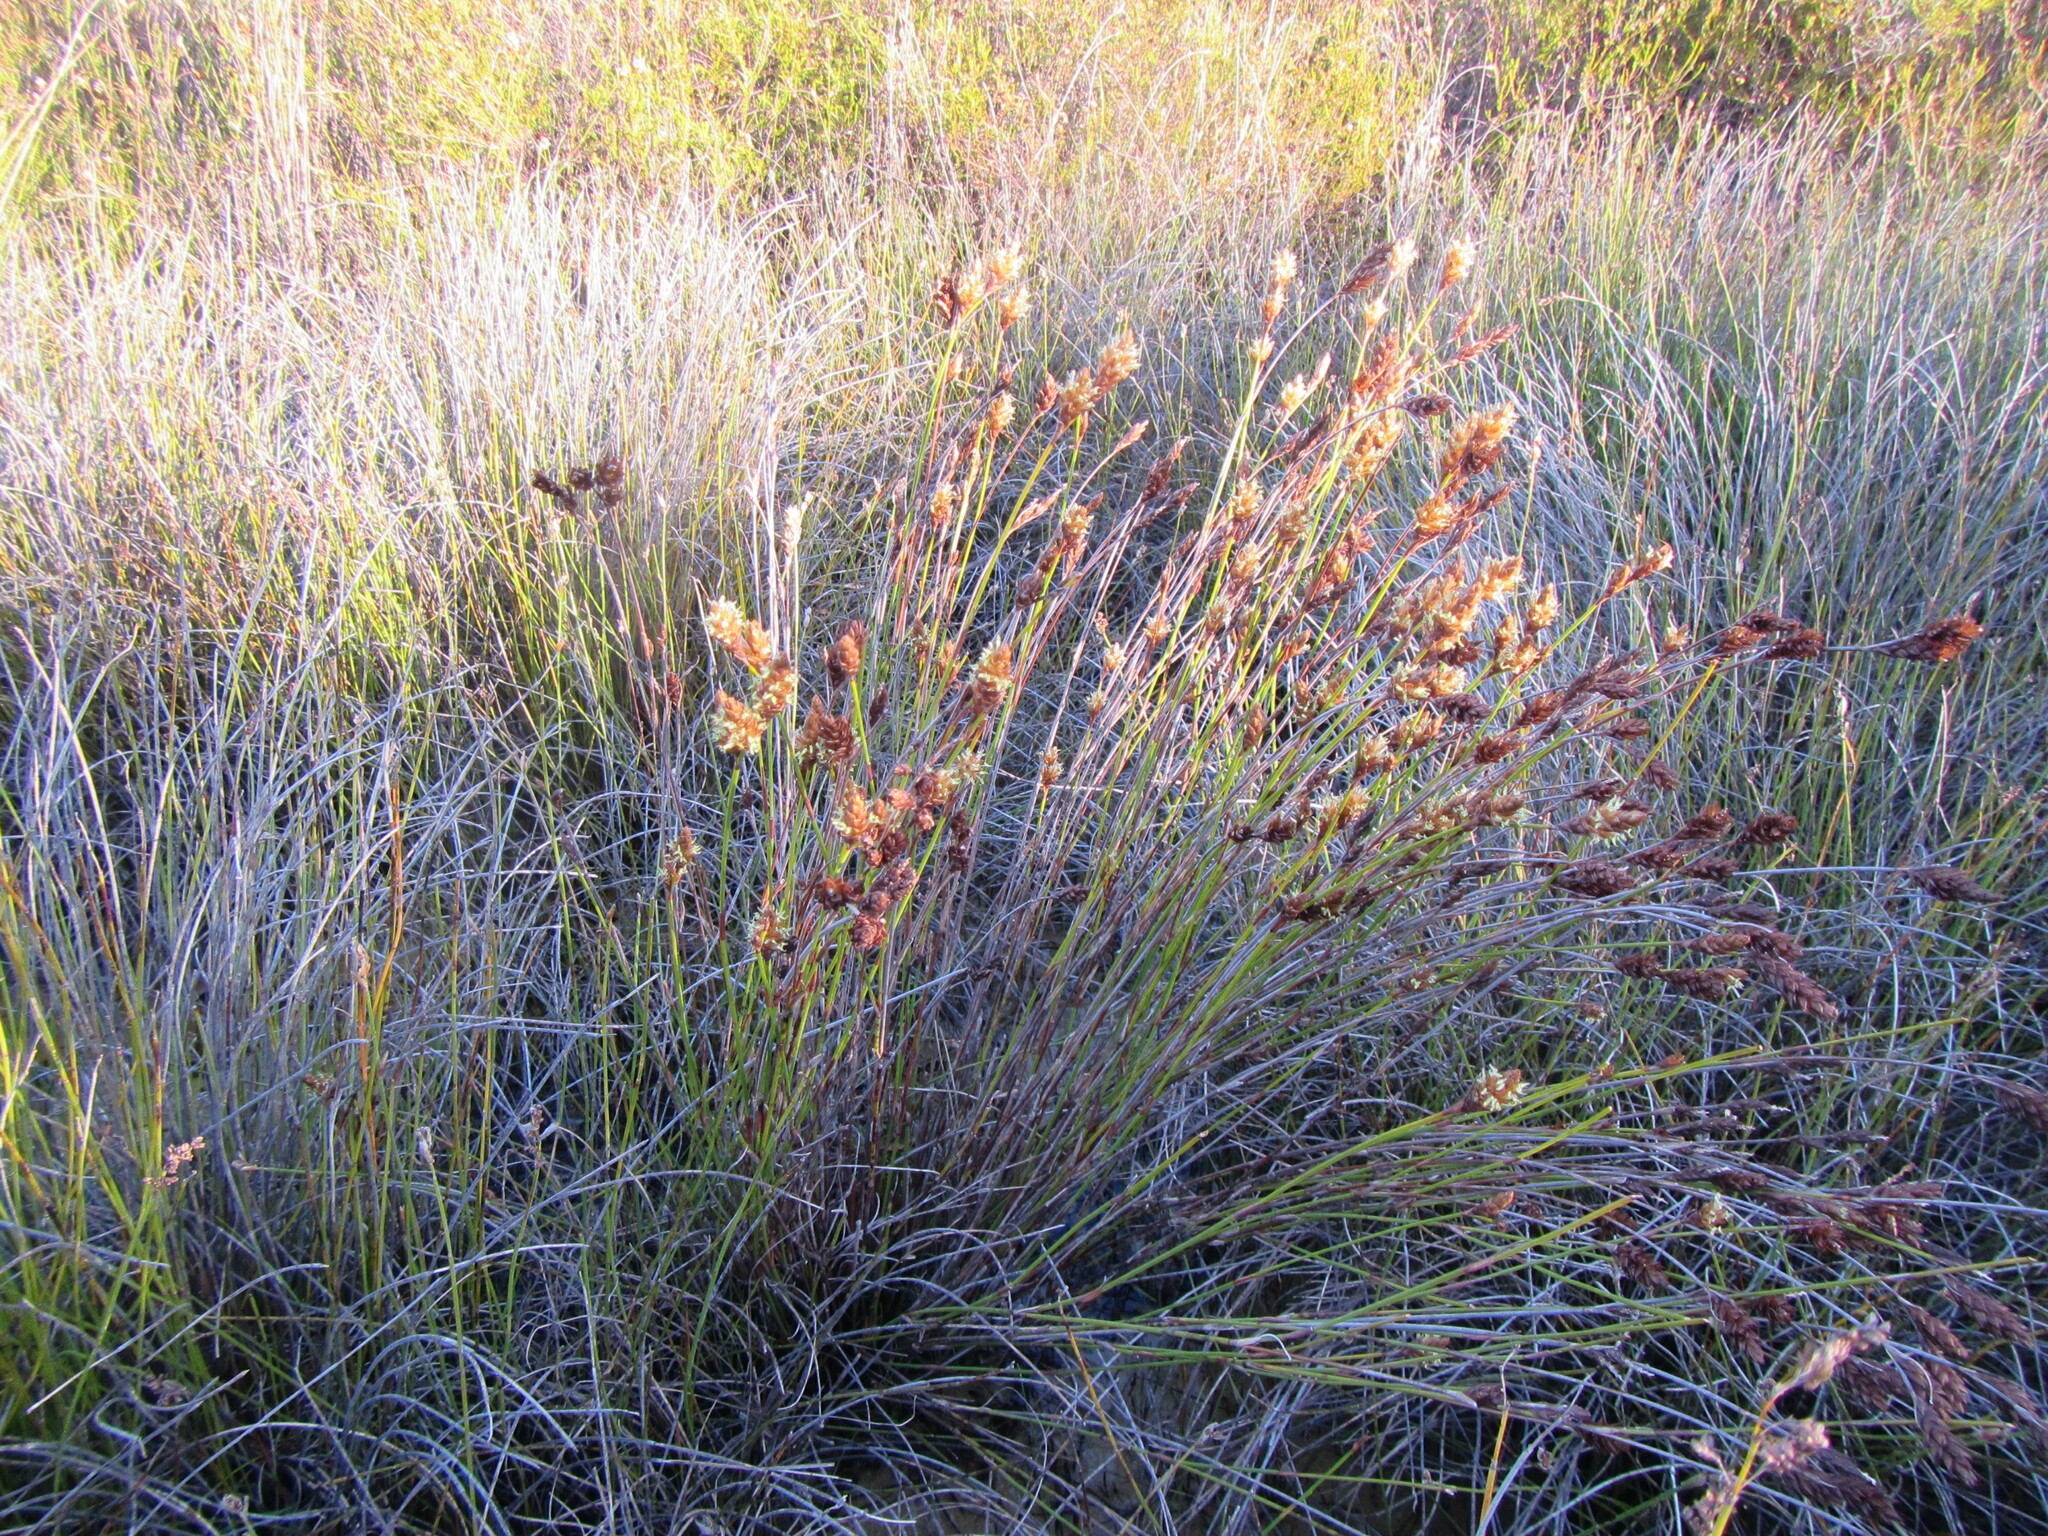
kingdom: Plantae
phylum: Tracheophyta
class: Liliopsida
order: Poales
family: Restionaceae
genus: Restio
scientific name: Restio quinquefarius
